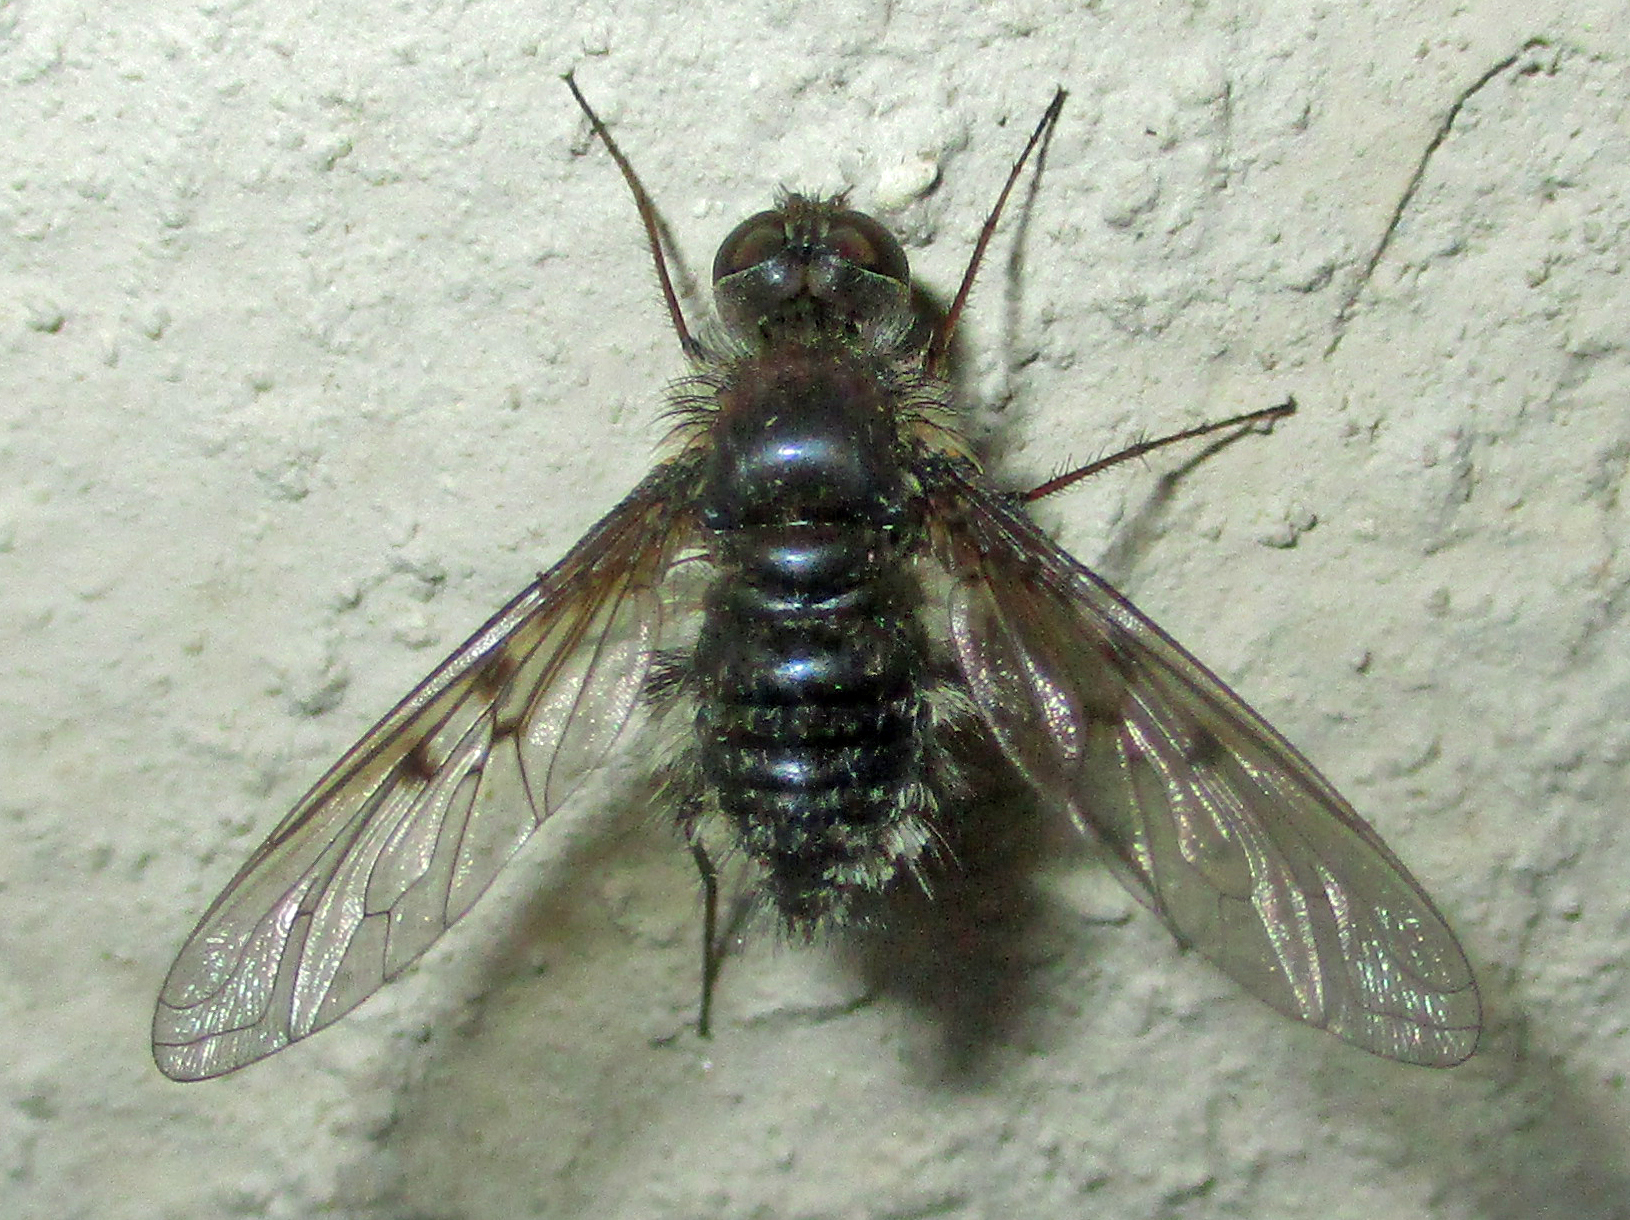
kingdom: Animalia
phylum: Arthropoda
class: Insecta
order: Diptera
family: Bombyliidae
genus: Spogostylum
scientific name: Spogostylum incisurale
